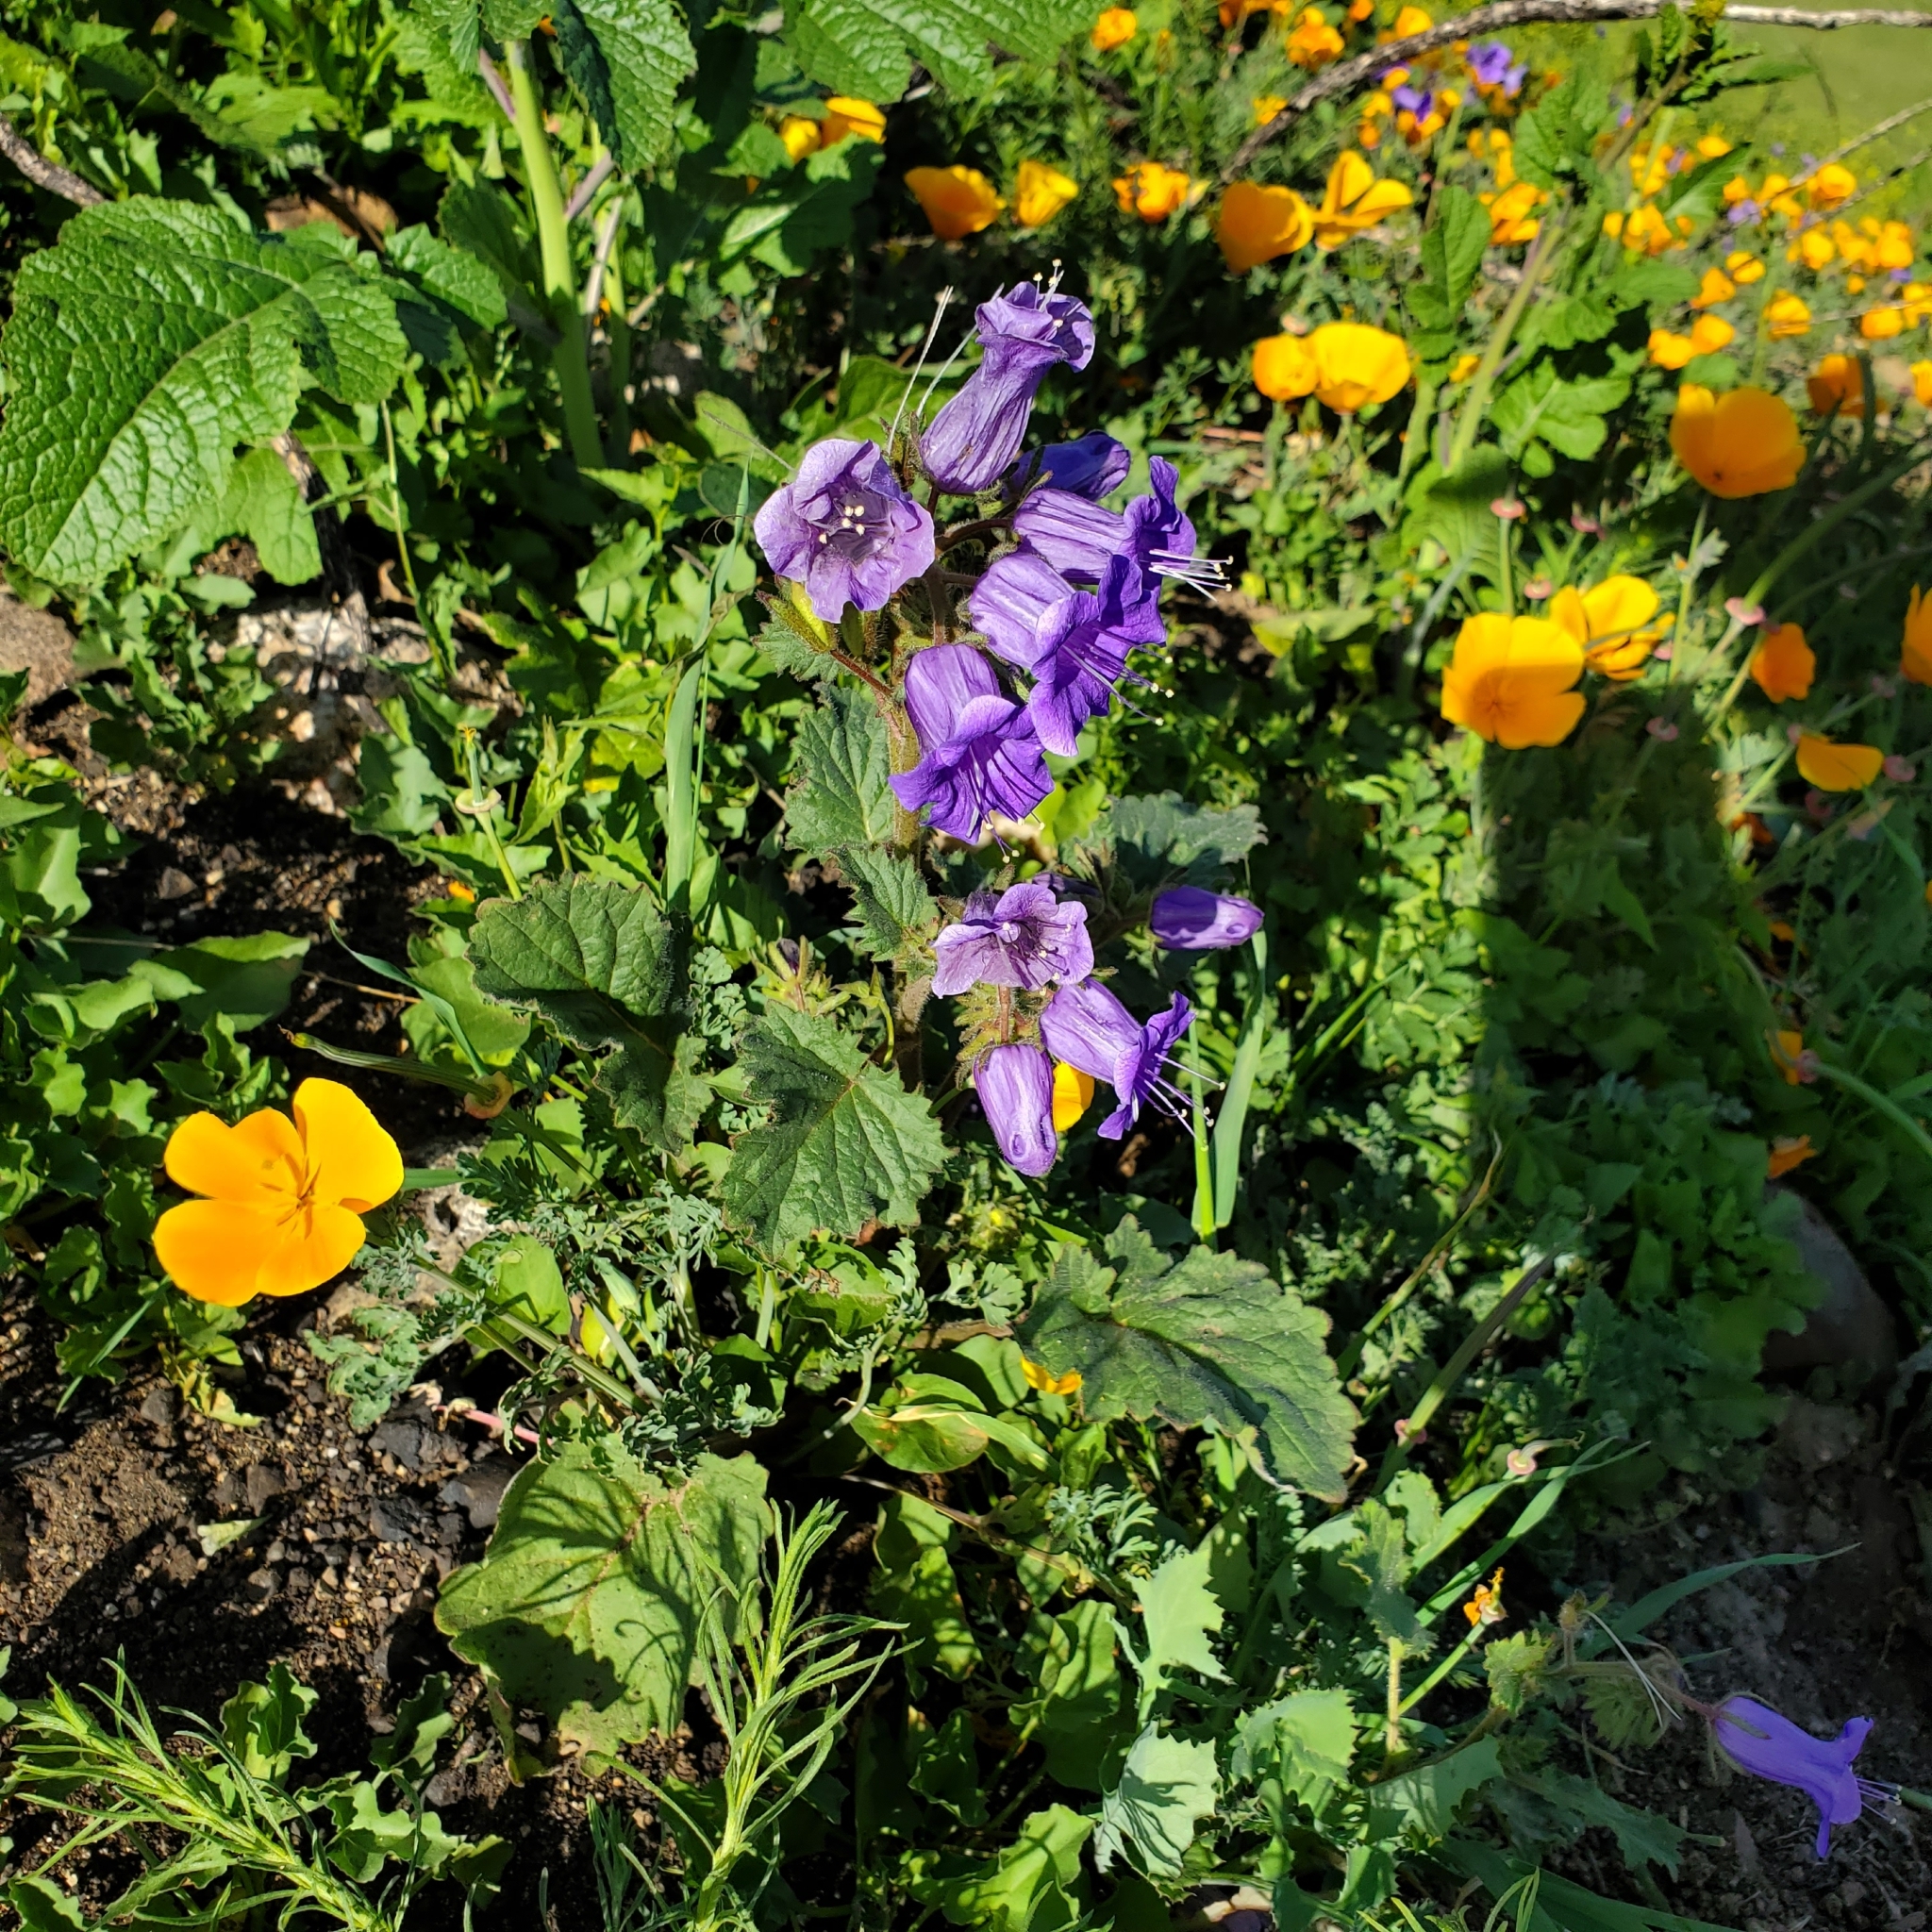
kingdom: Plantae
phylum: Tracheophyta
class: Magnoliopsida
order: Boraginales
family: Hydrophyllaceae
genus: Phacelia
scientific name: Phacelia minor
